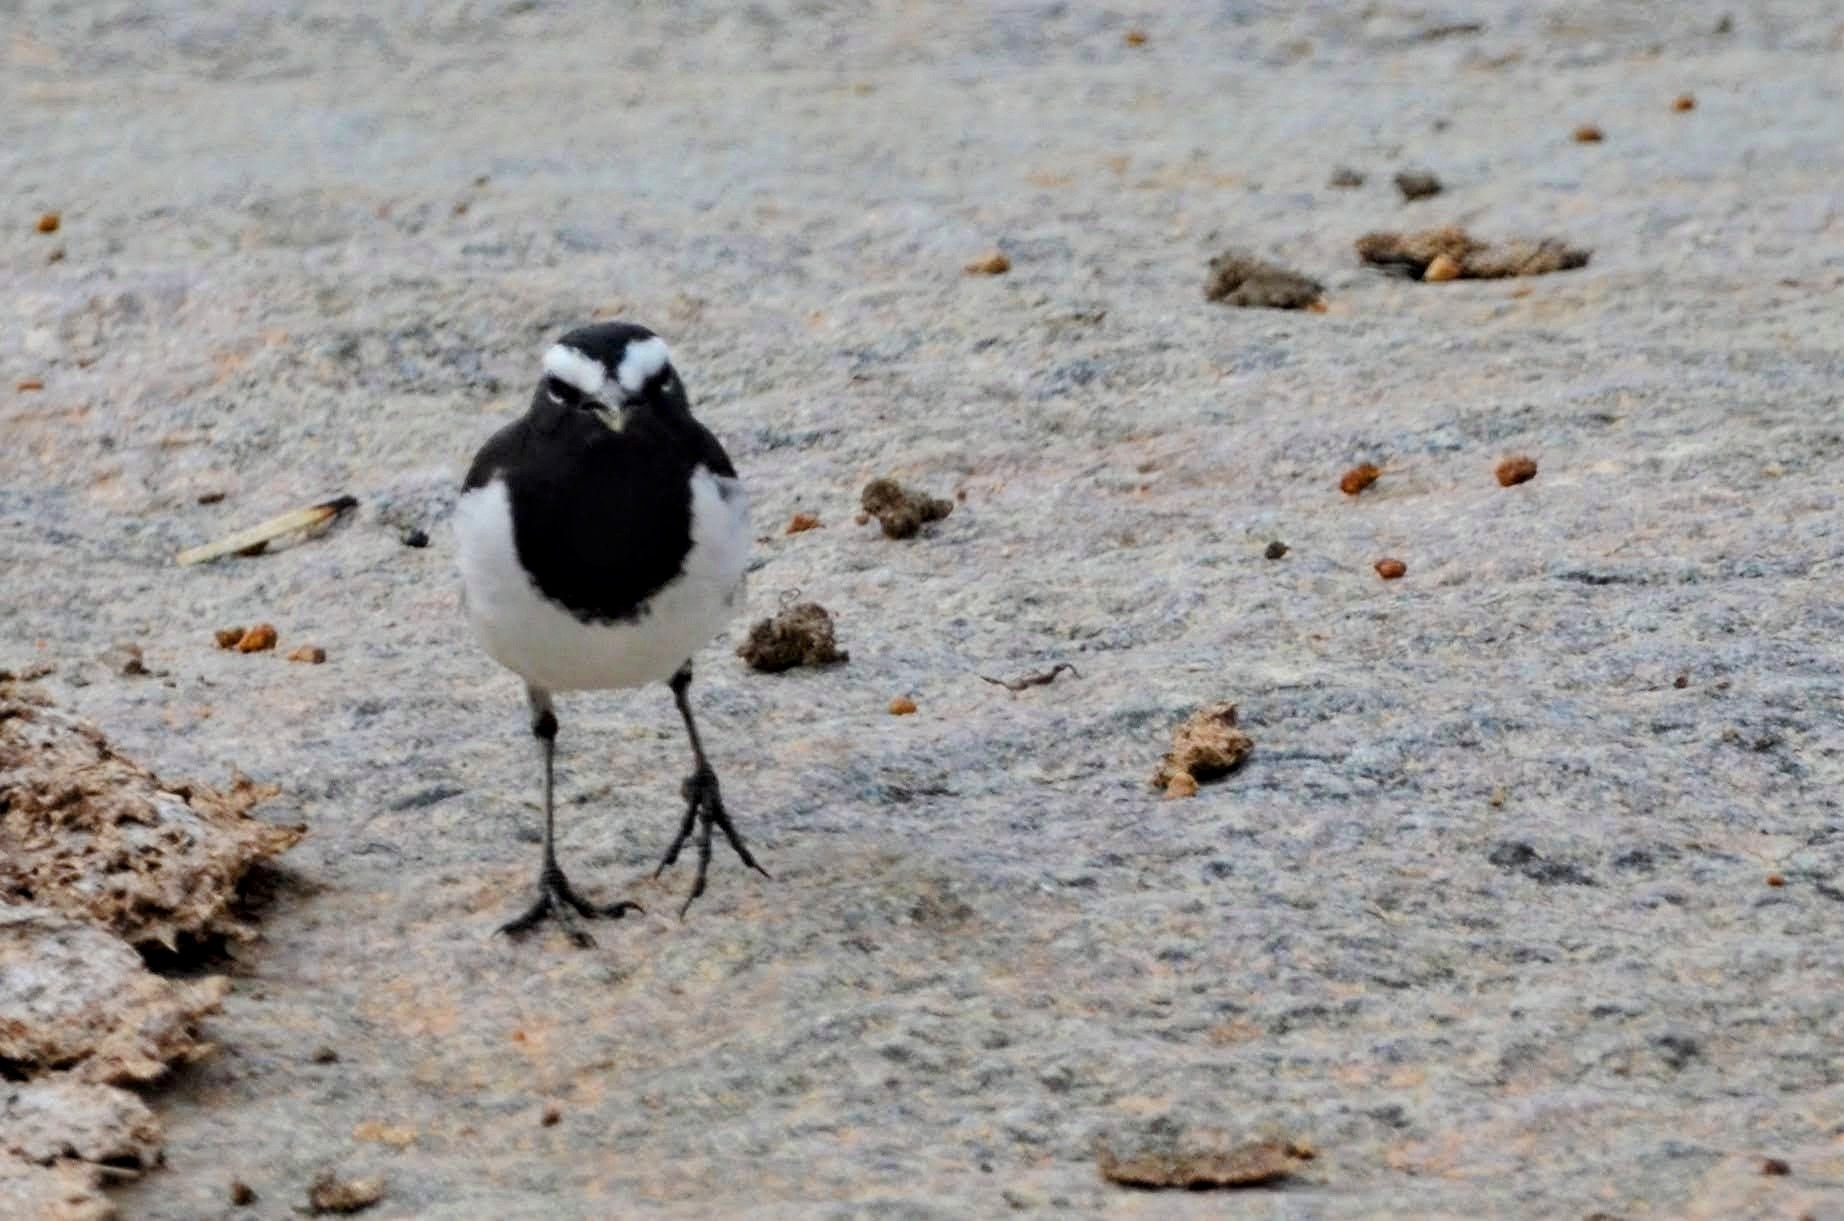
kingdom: Animalia
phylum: Chordata
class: Aves
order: Passeriformes
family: Motacillidae
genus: Motacilla
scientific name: Motacilla maderaspatensis
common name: White-browed wagtail
